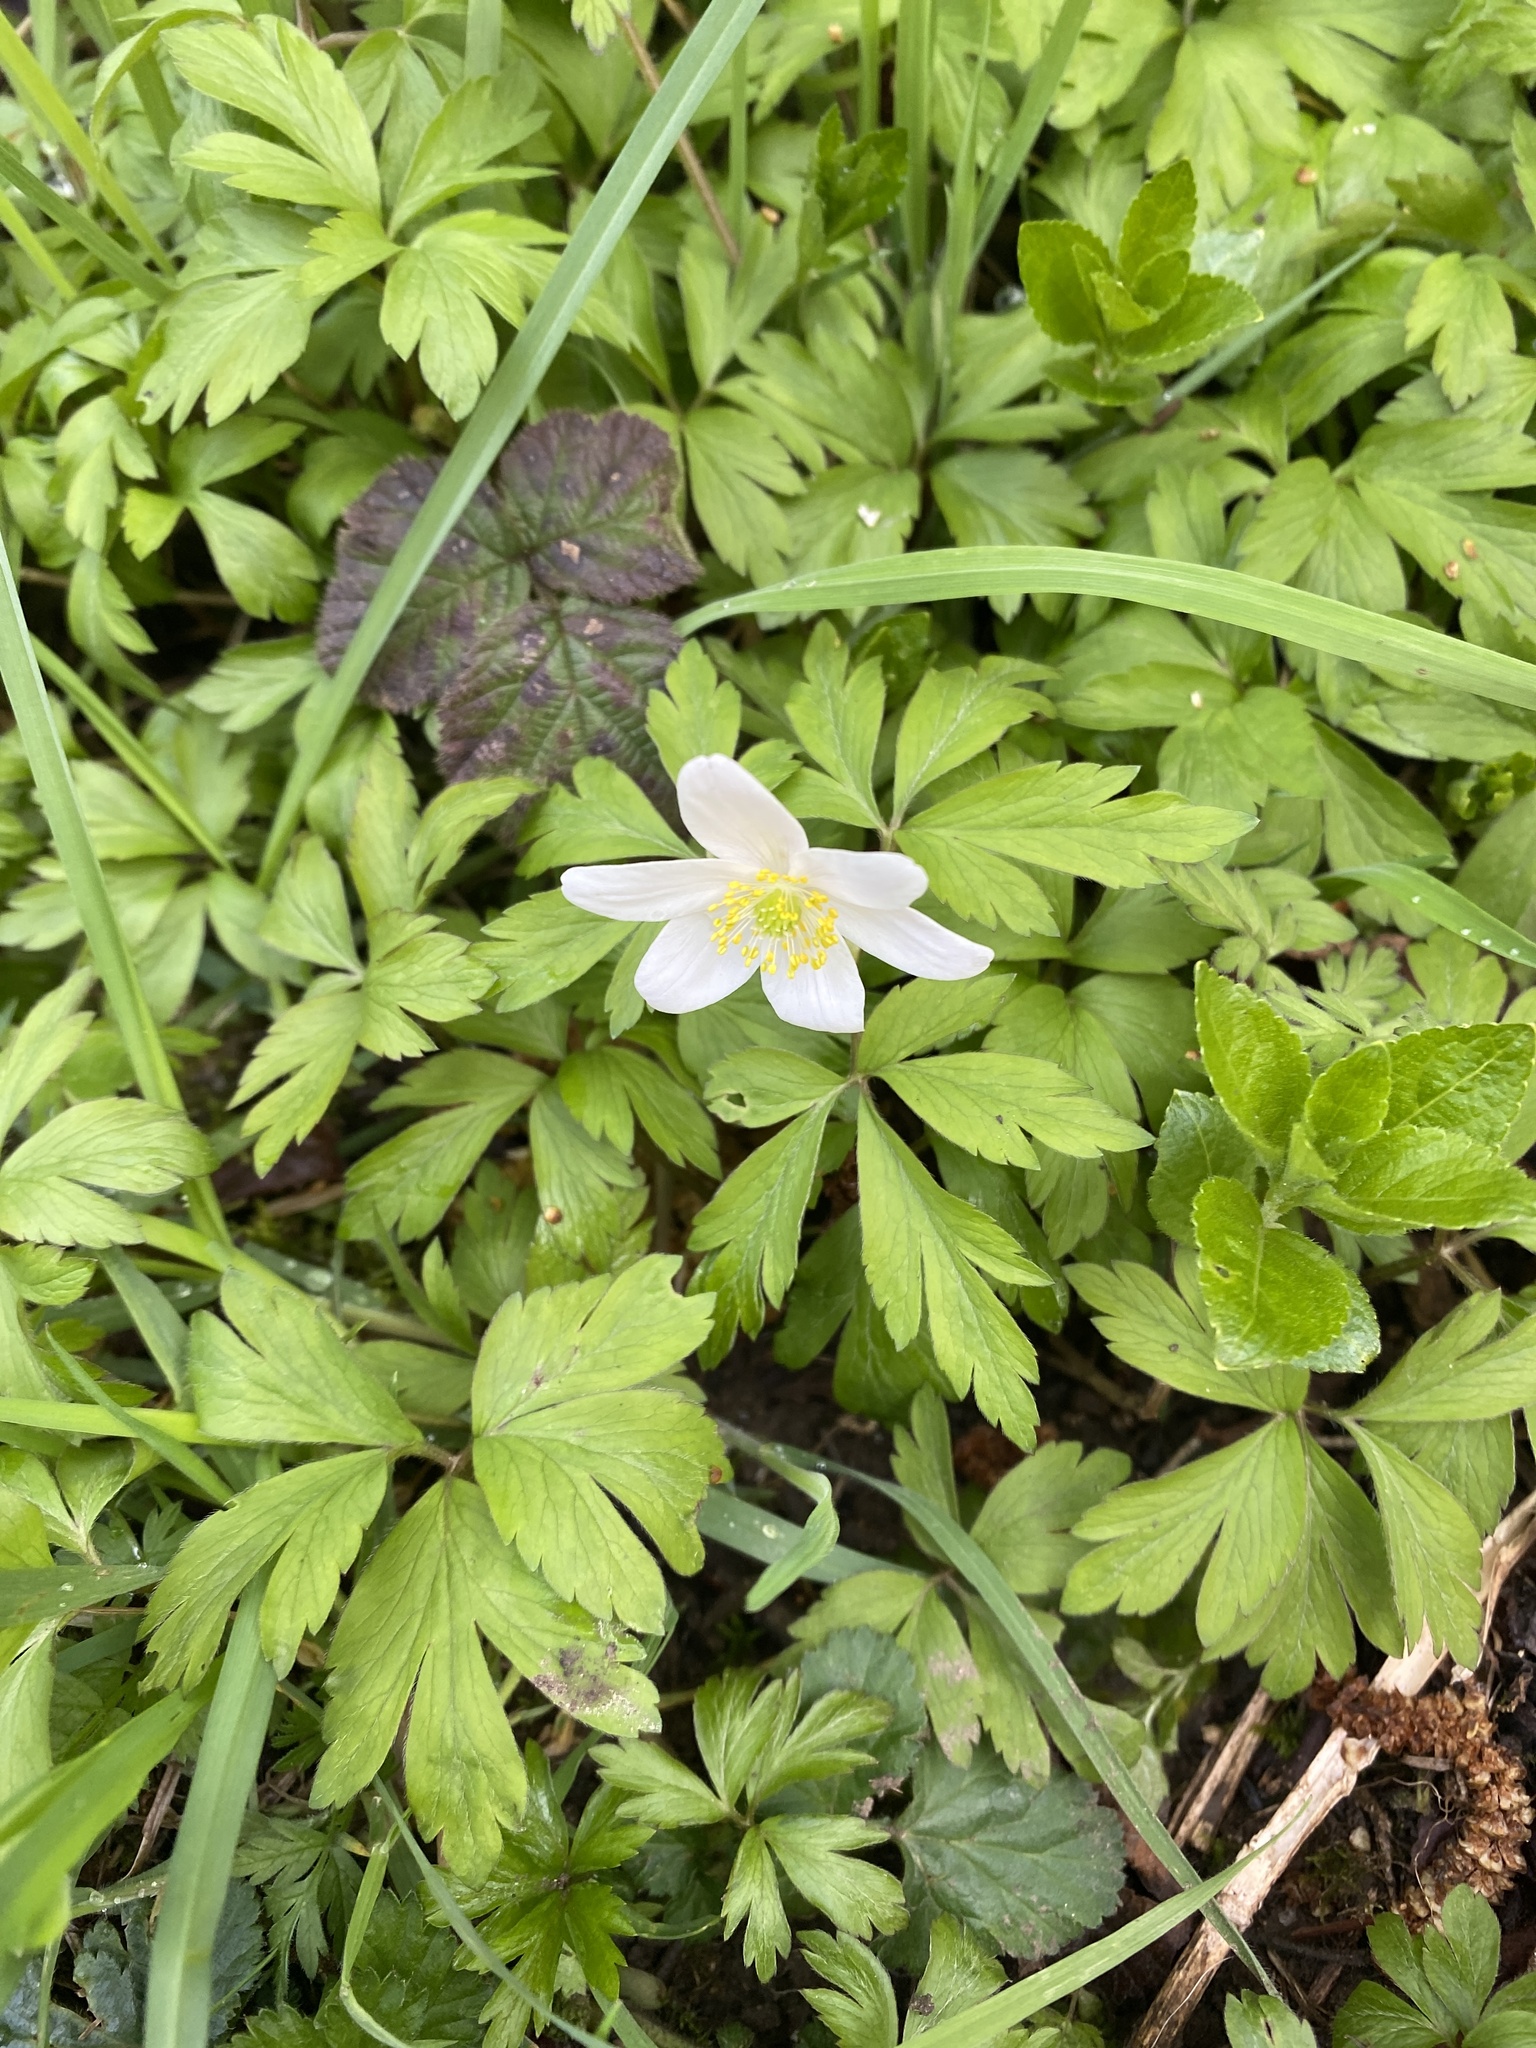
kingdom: Plantae
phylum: Tracheophyta
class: Magnoliopsida
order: Ranunculales
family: Ranunculaceae
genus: Anemone
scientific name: Anemone nemorosa
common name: Wood anemone
